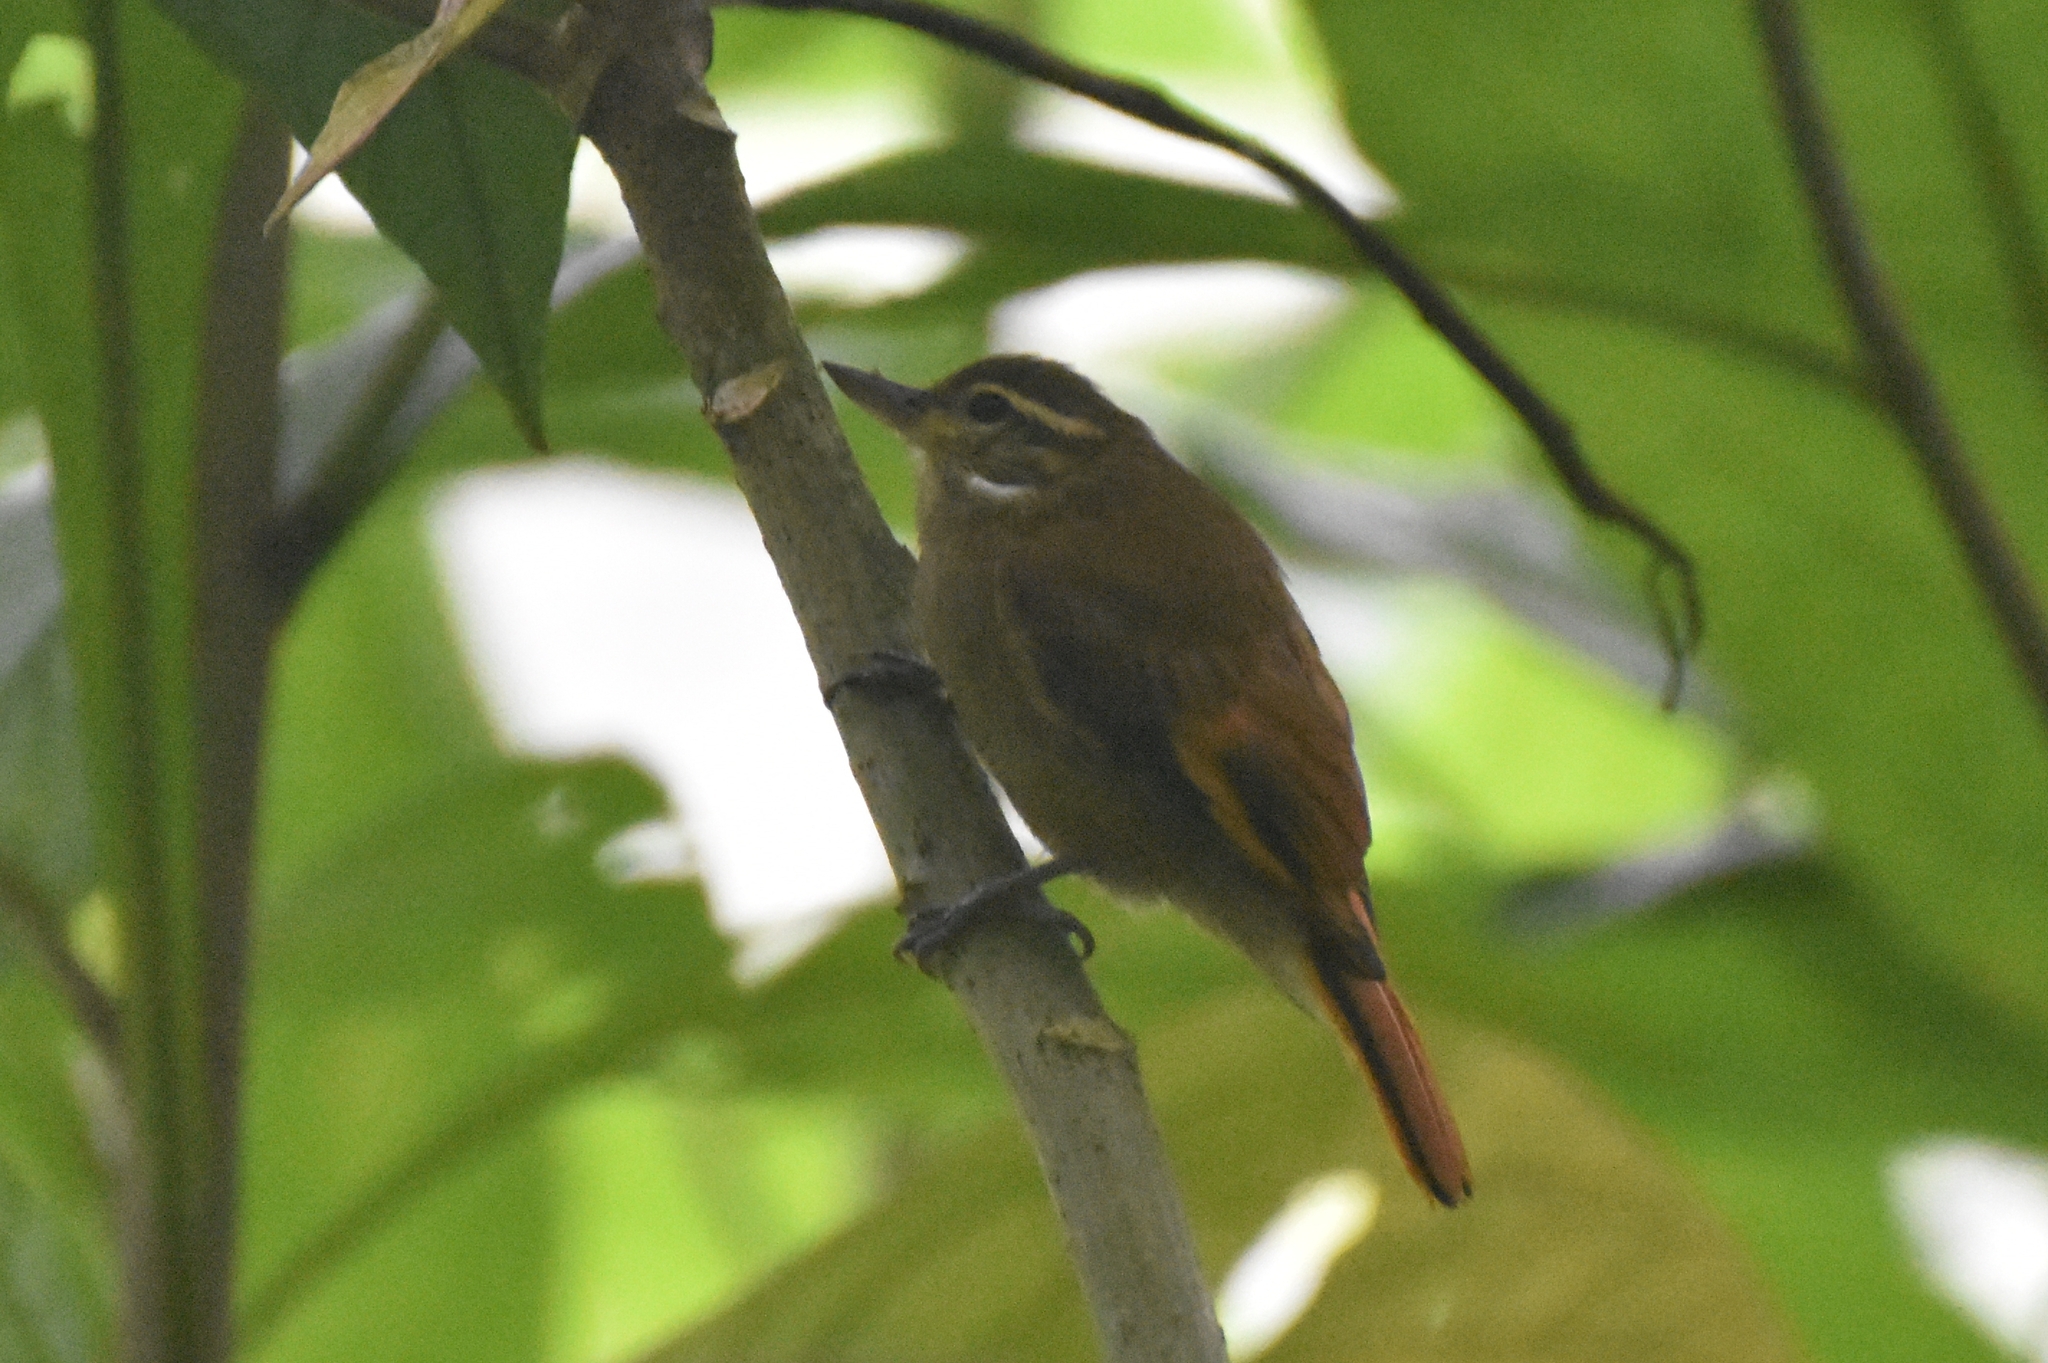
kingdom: Animalia
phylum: Chordata
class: Aves
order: Passeriformes
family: Furnariidae
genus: Xenops
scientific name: Xenops minutus
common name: Plain xenops
